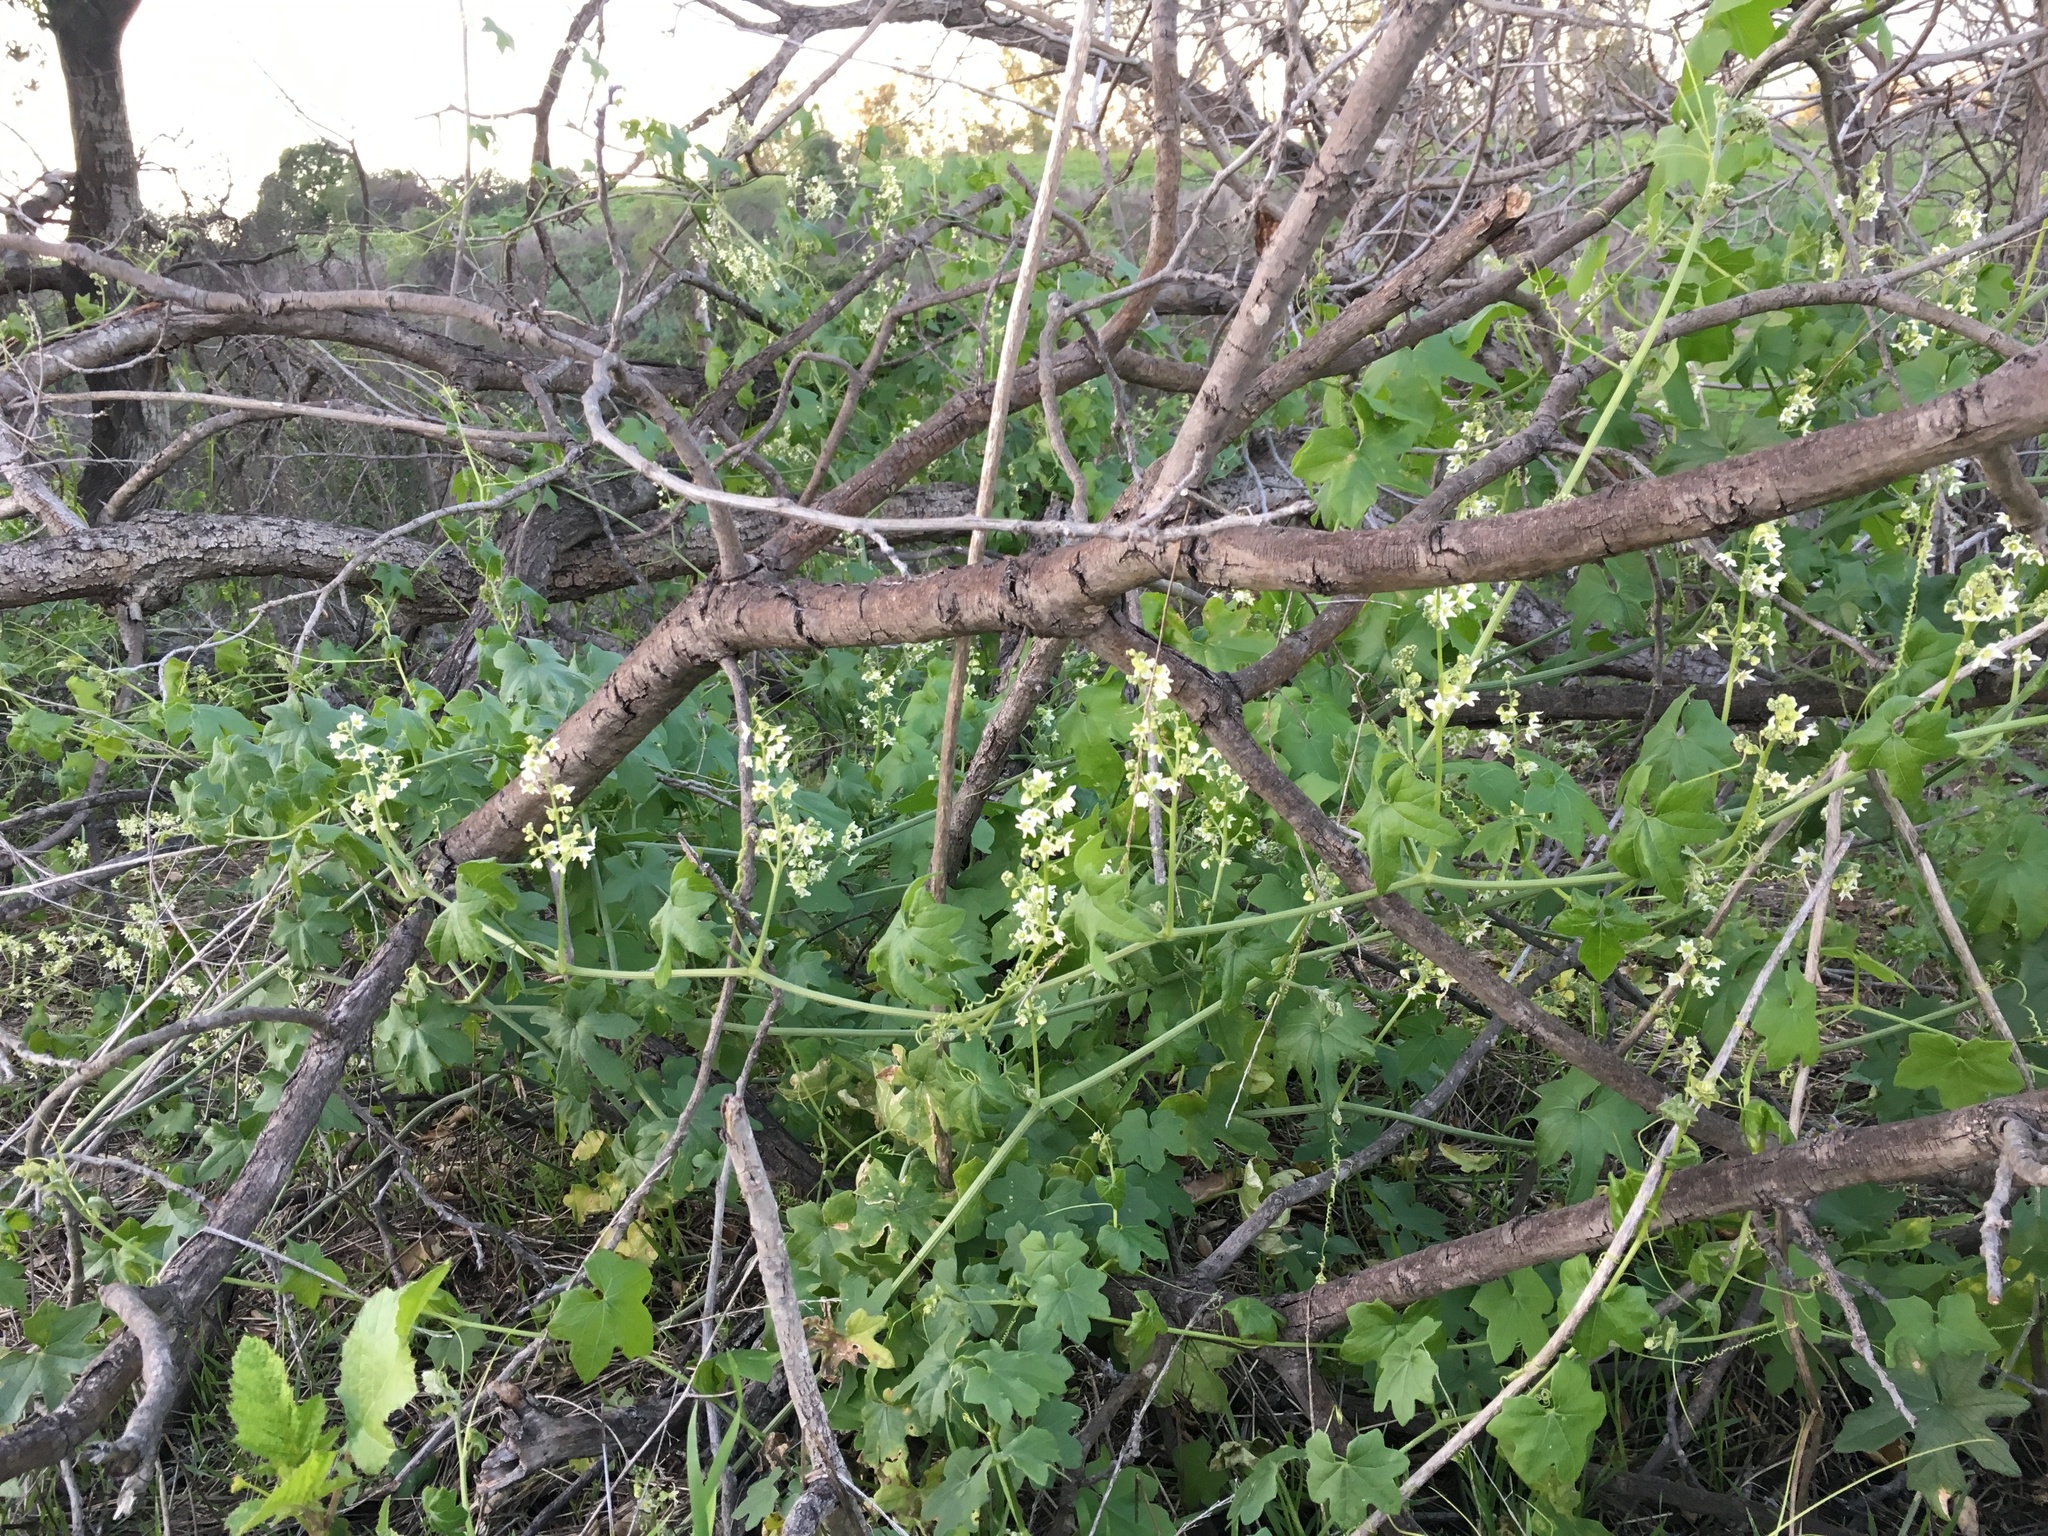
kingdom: Plantae
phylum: Tracheophyta
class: Magnoliopsida
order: Cucurbitales
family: Cucurbitaceae
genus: Marah
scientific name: Marah macrocarpa
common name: Cucamonga manroot
